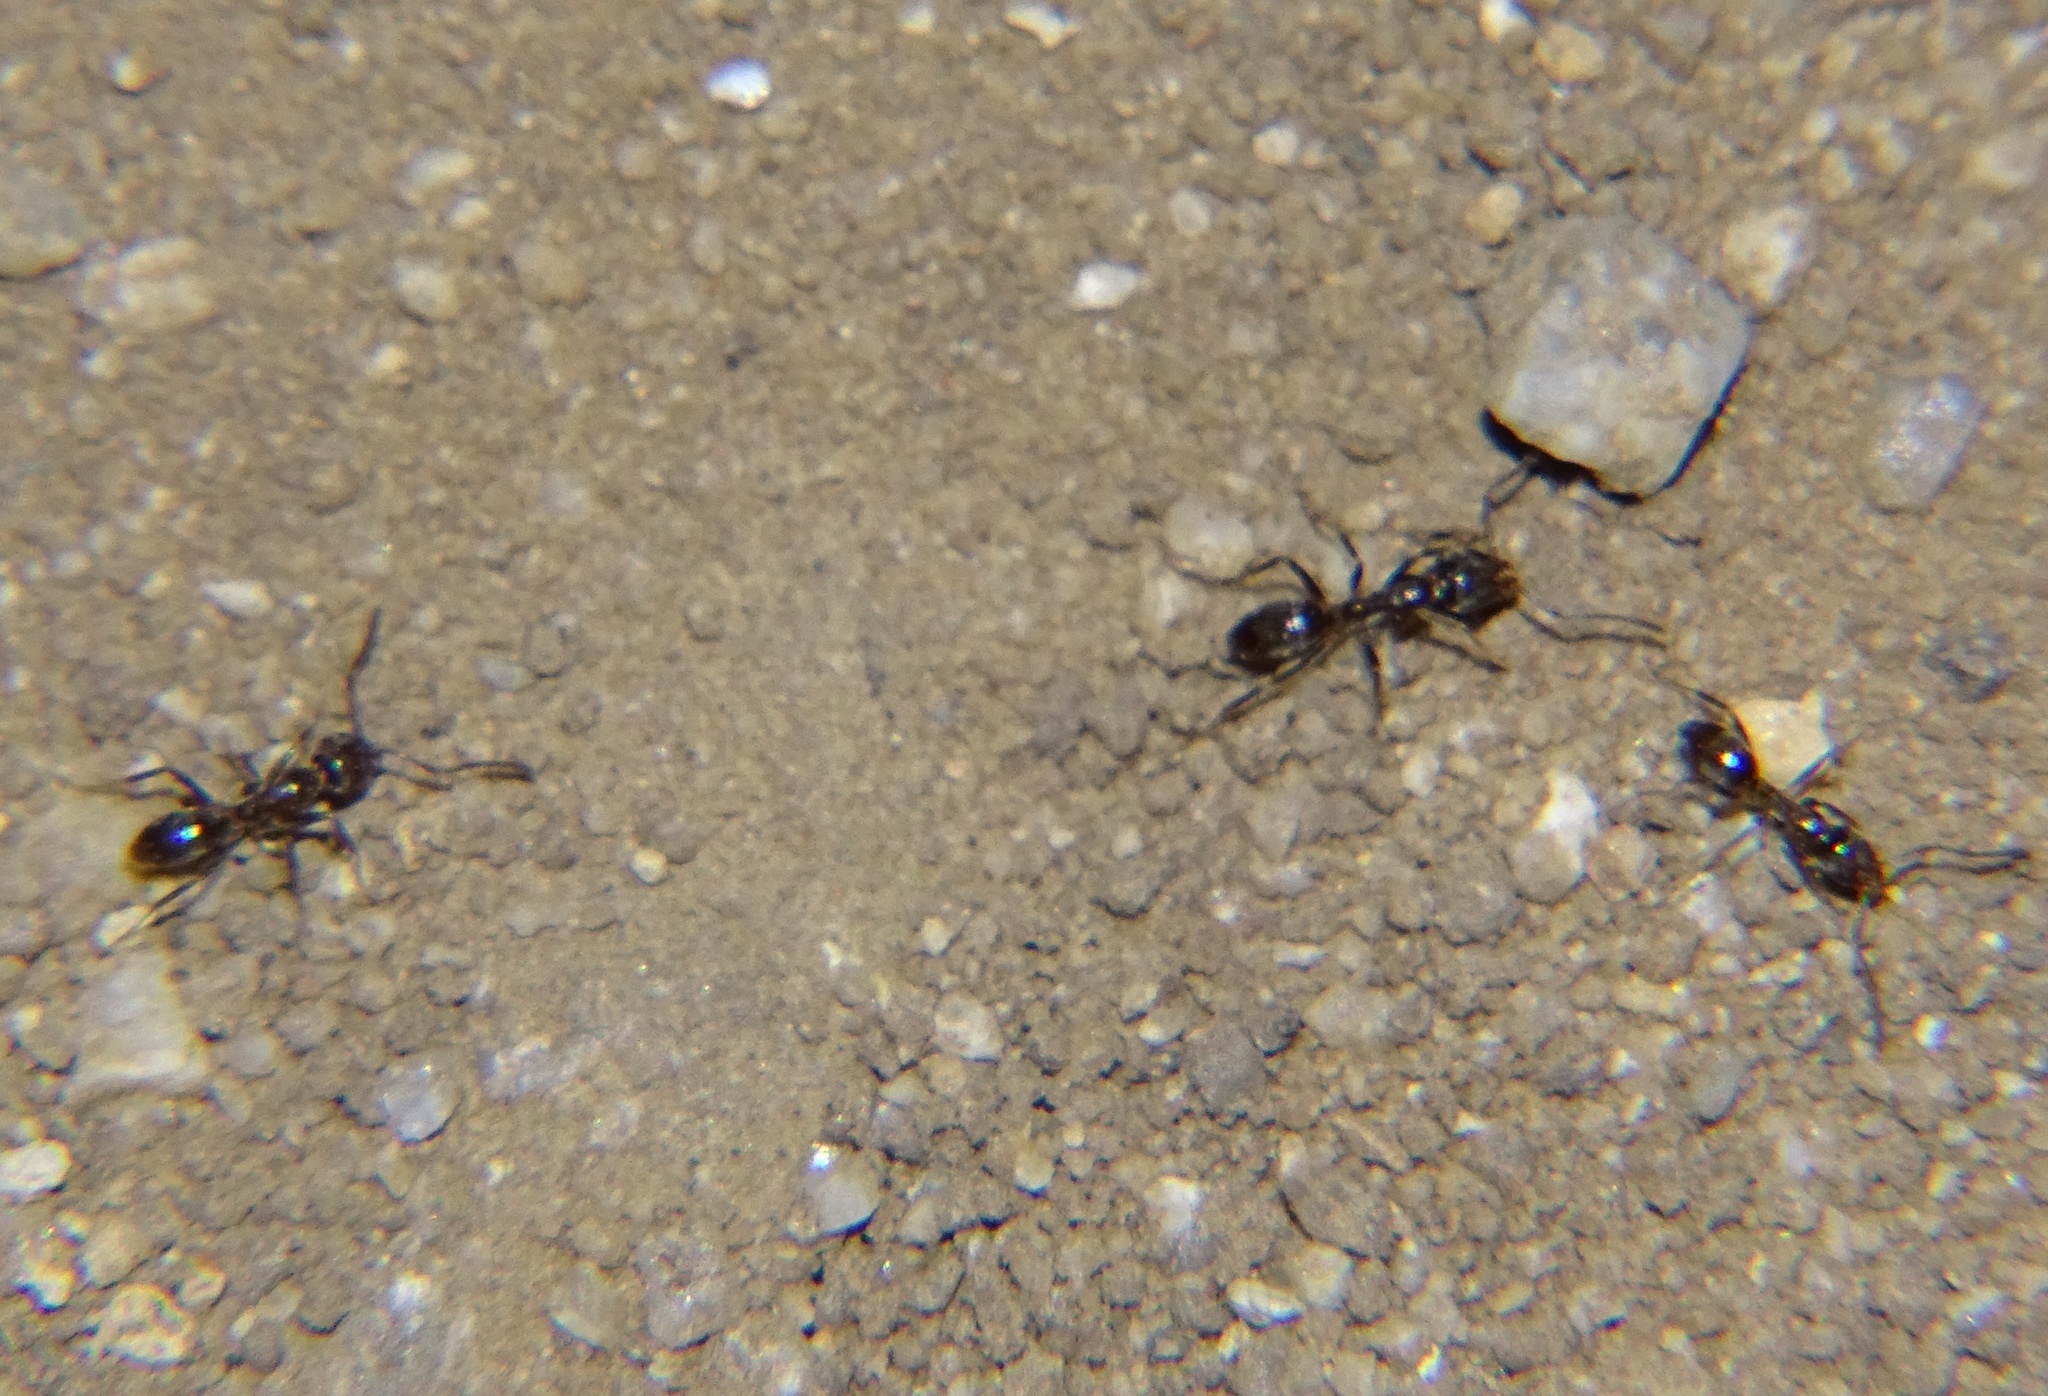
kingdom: Animalia
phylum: Arthropoda
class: Insecta
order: Hymenoptera
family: Formicidae
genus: Linepithema
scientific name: Linepithema humile
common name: Argentine ant
